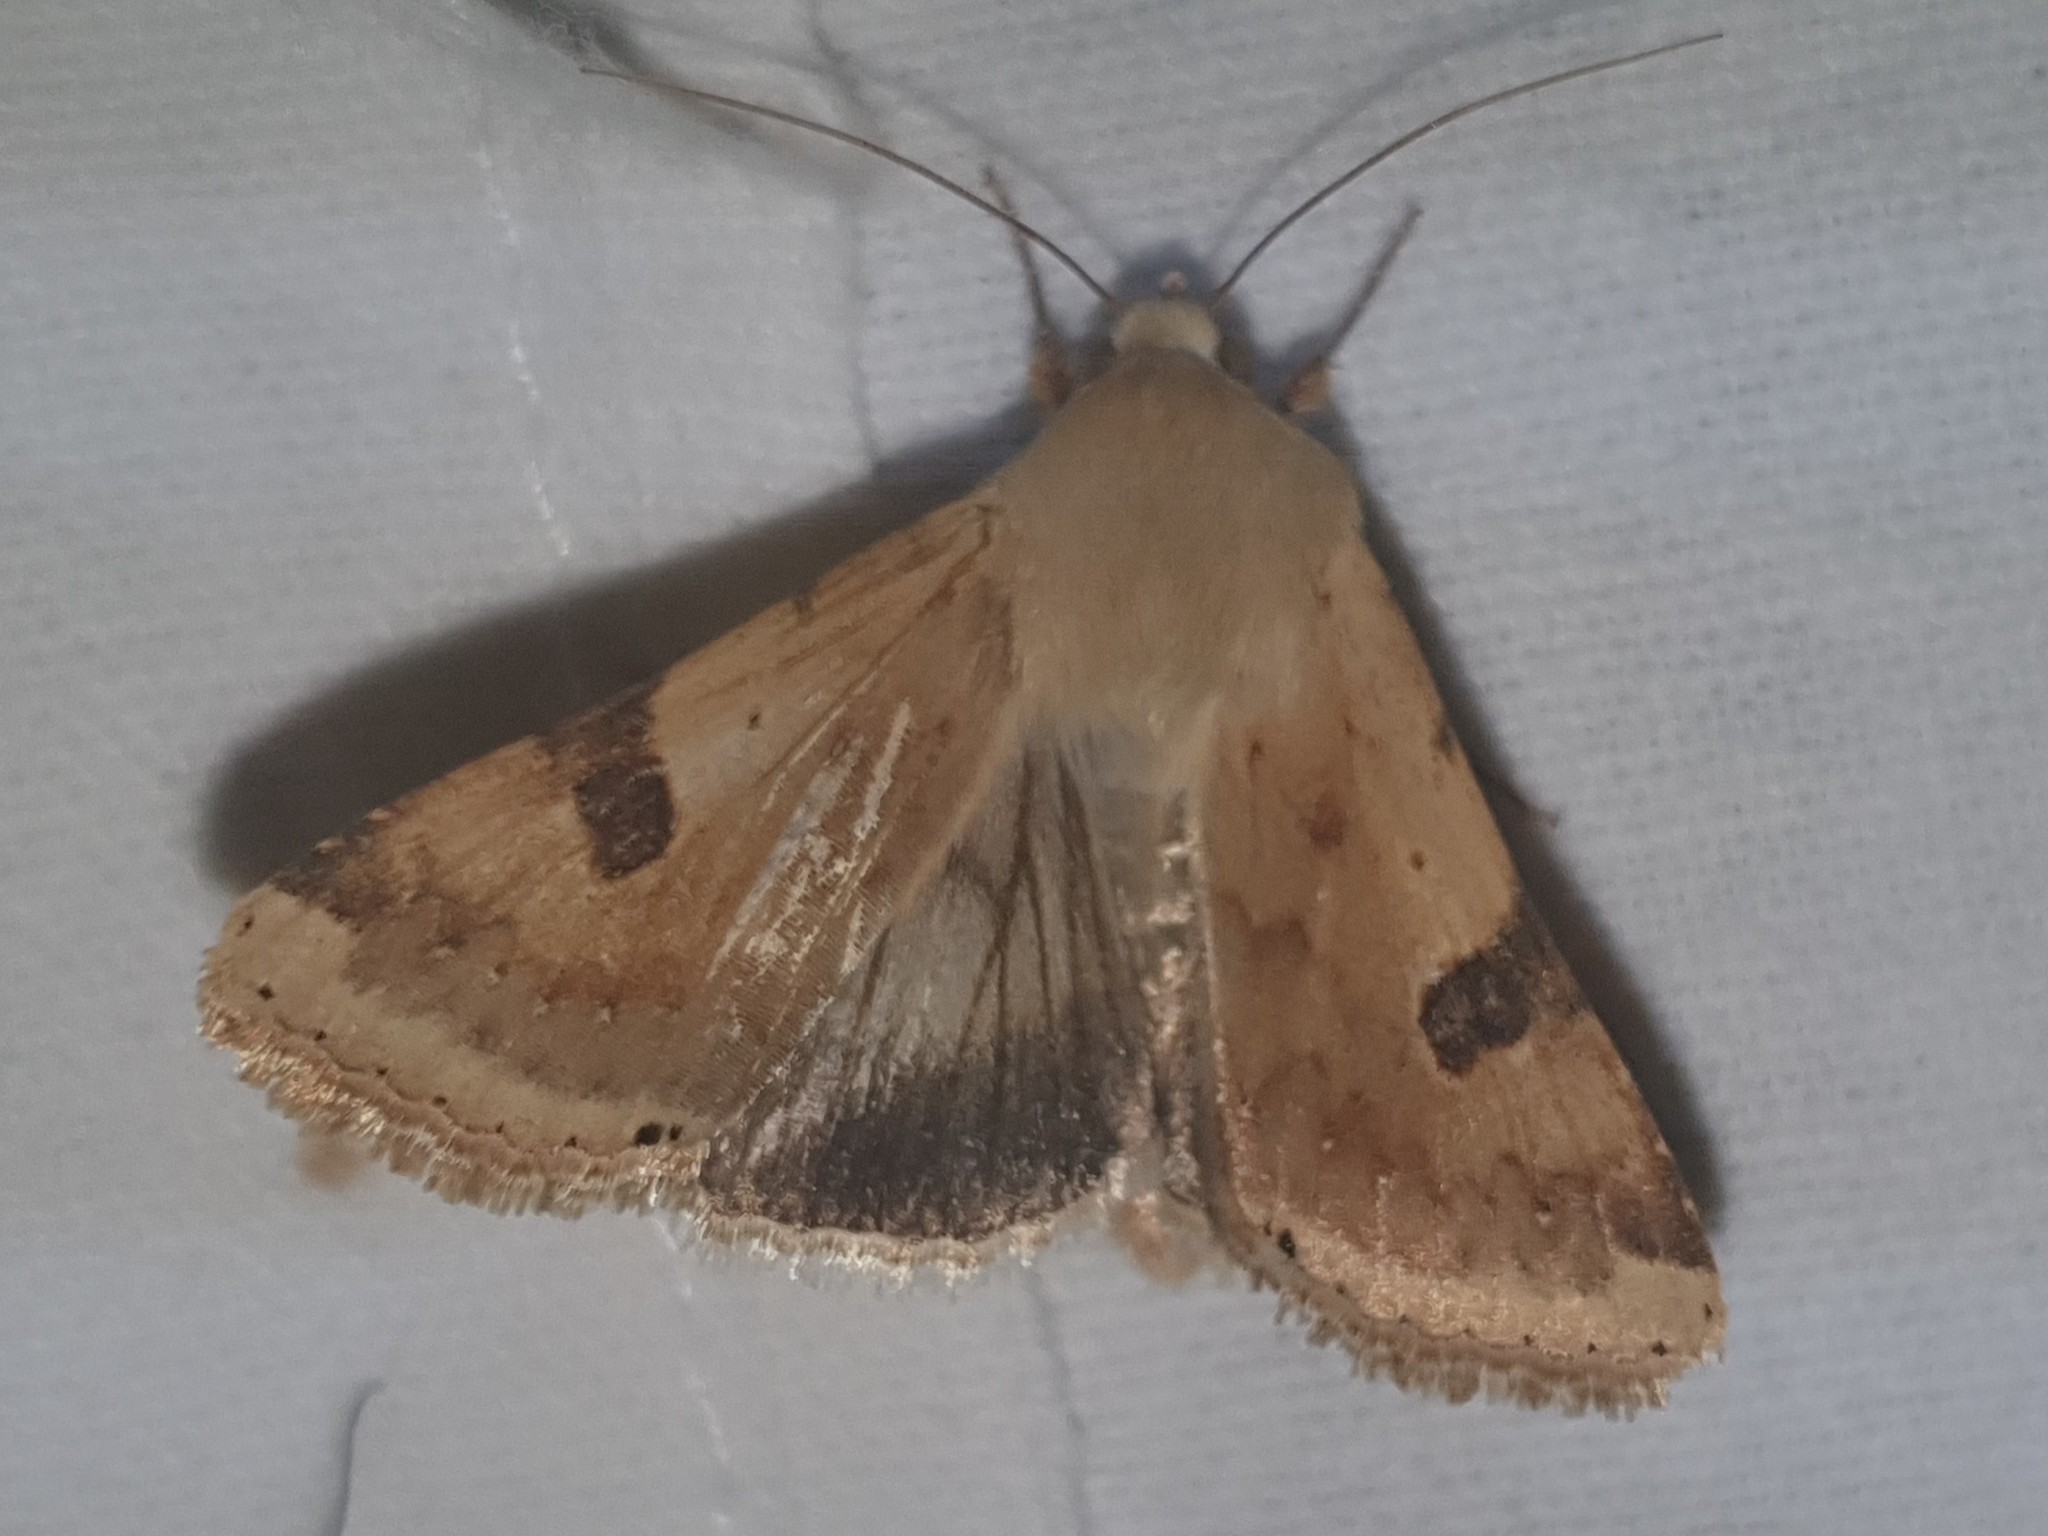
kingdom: Animalia
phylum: Arthropoda
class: Insecta
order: Lepidoptera
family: Noctuidae
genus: Heliothis
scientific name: Heliothis peltigera
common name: Bordered straw
